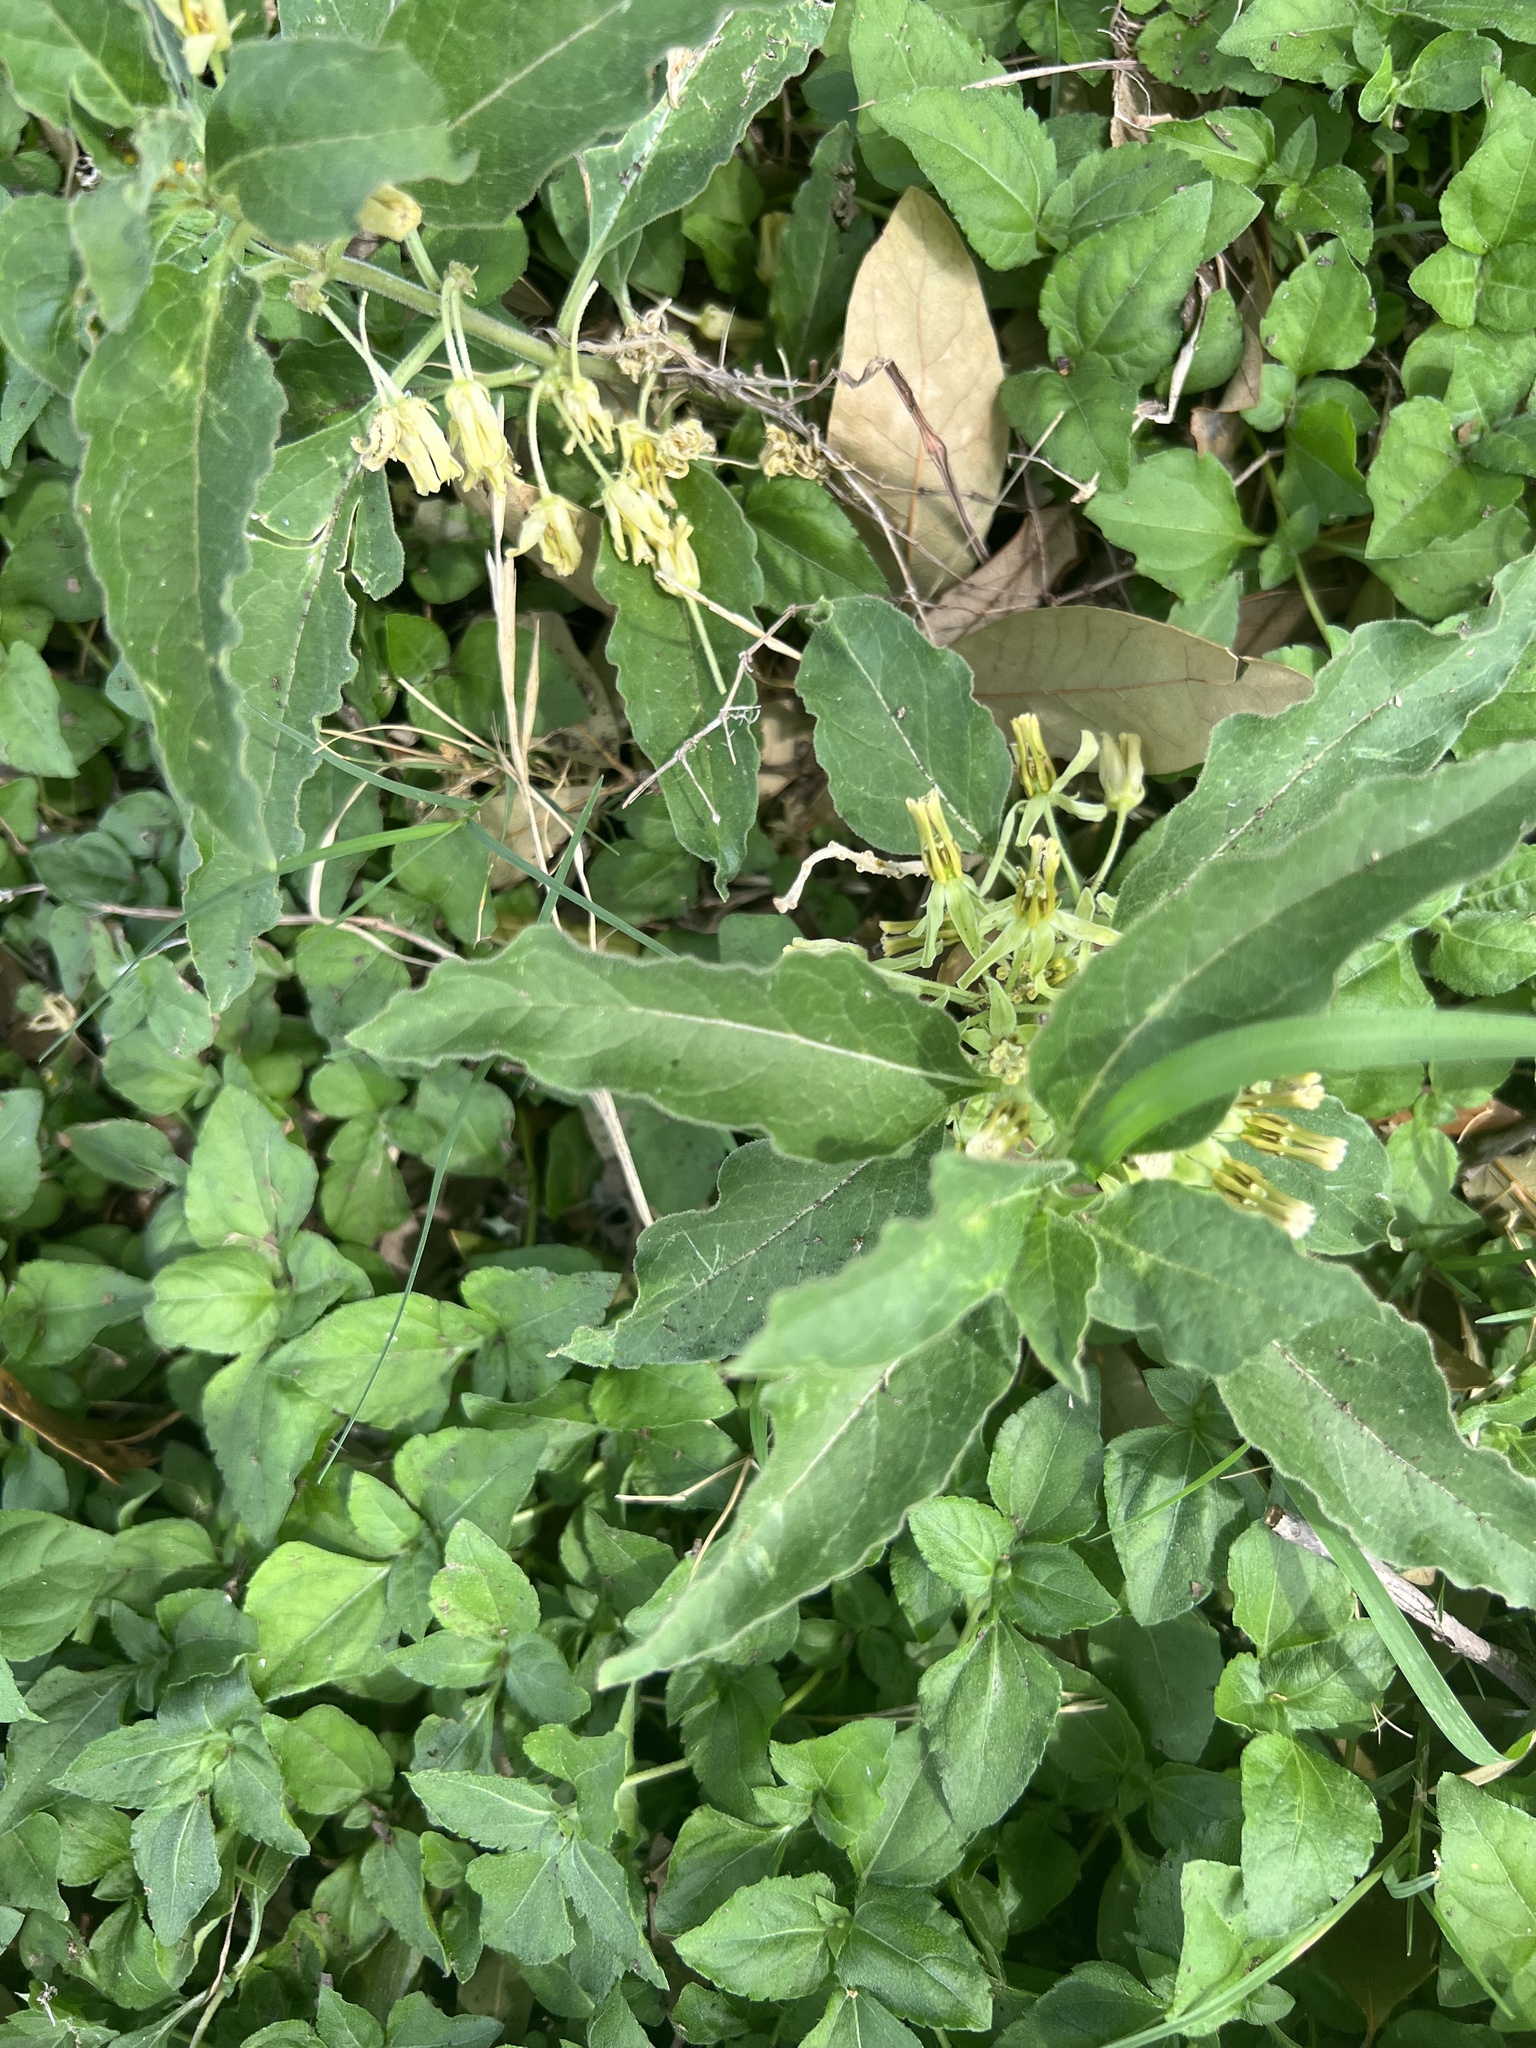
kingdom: Plantae
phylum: Tracheophyta
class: Magnoliopsida
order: Gentianales
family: Apocynaceae
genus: Asclepias
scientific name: Asclepias oenotheroides
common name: Zizotes milkweed
